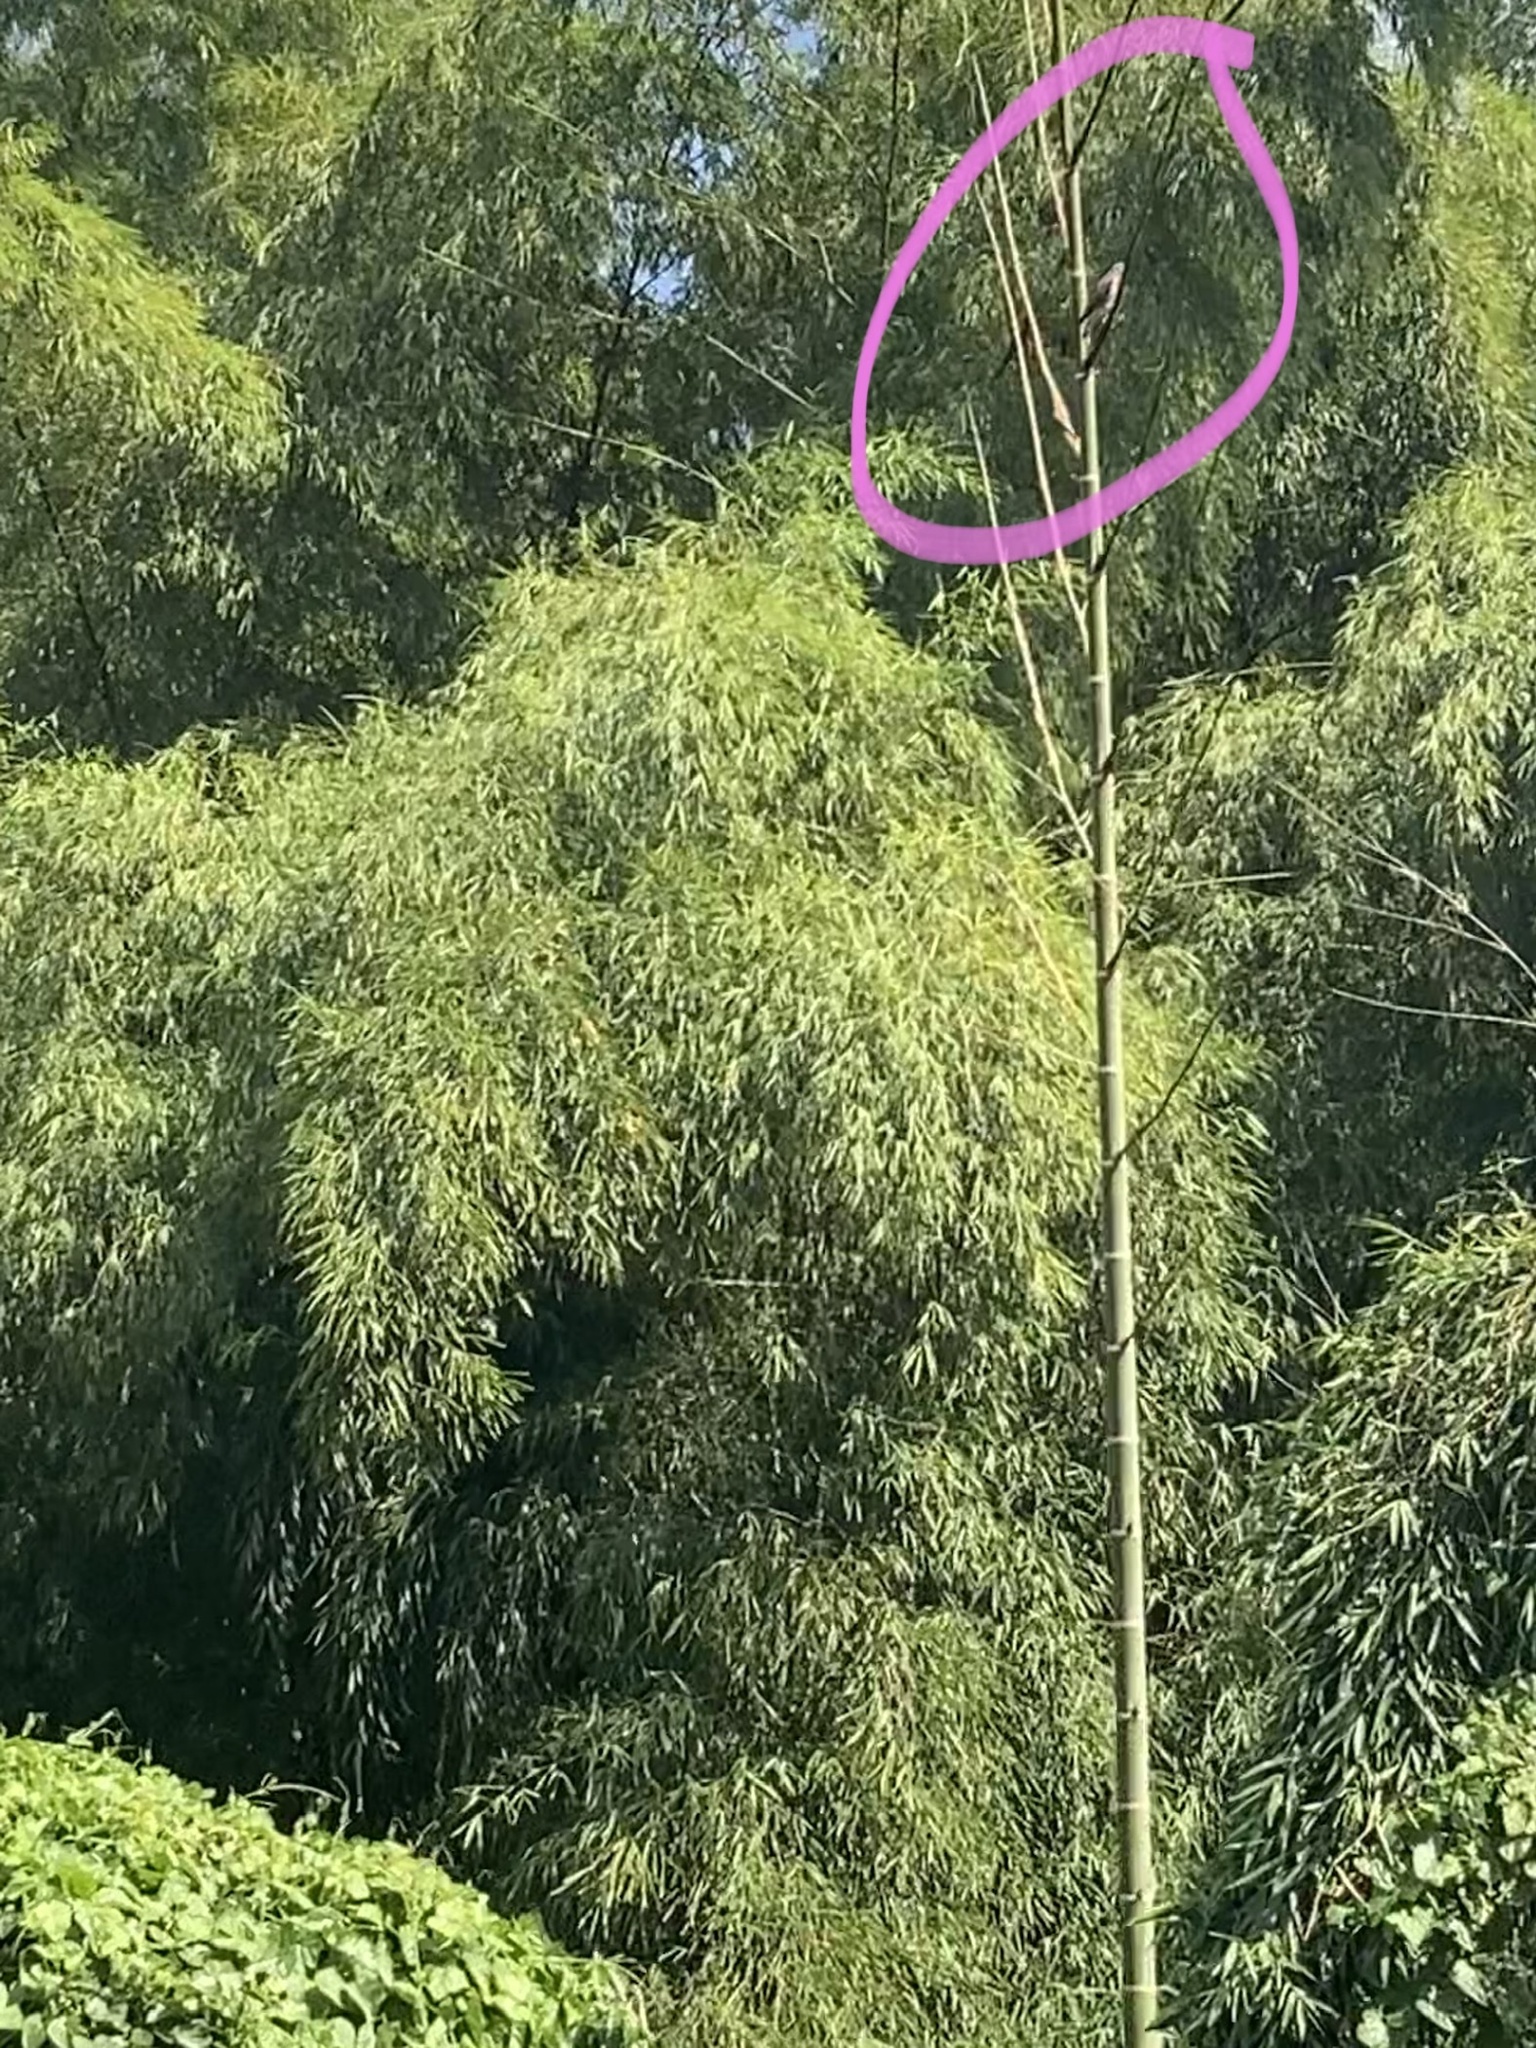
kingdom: Animalia
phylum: Chordata
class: Aves
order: Falconiformes
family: Falconidae
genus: Daptrius
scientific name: Daptrius
